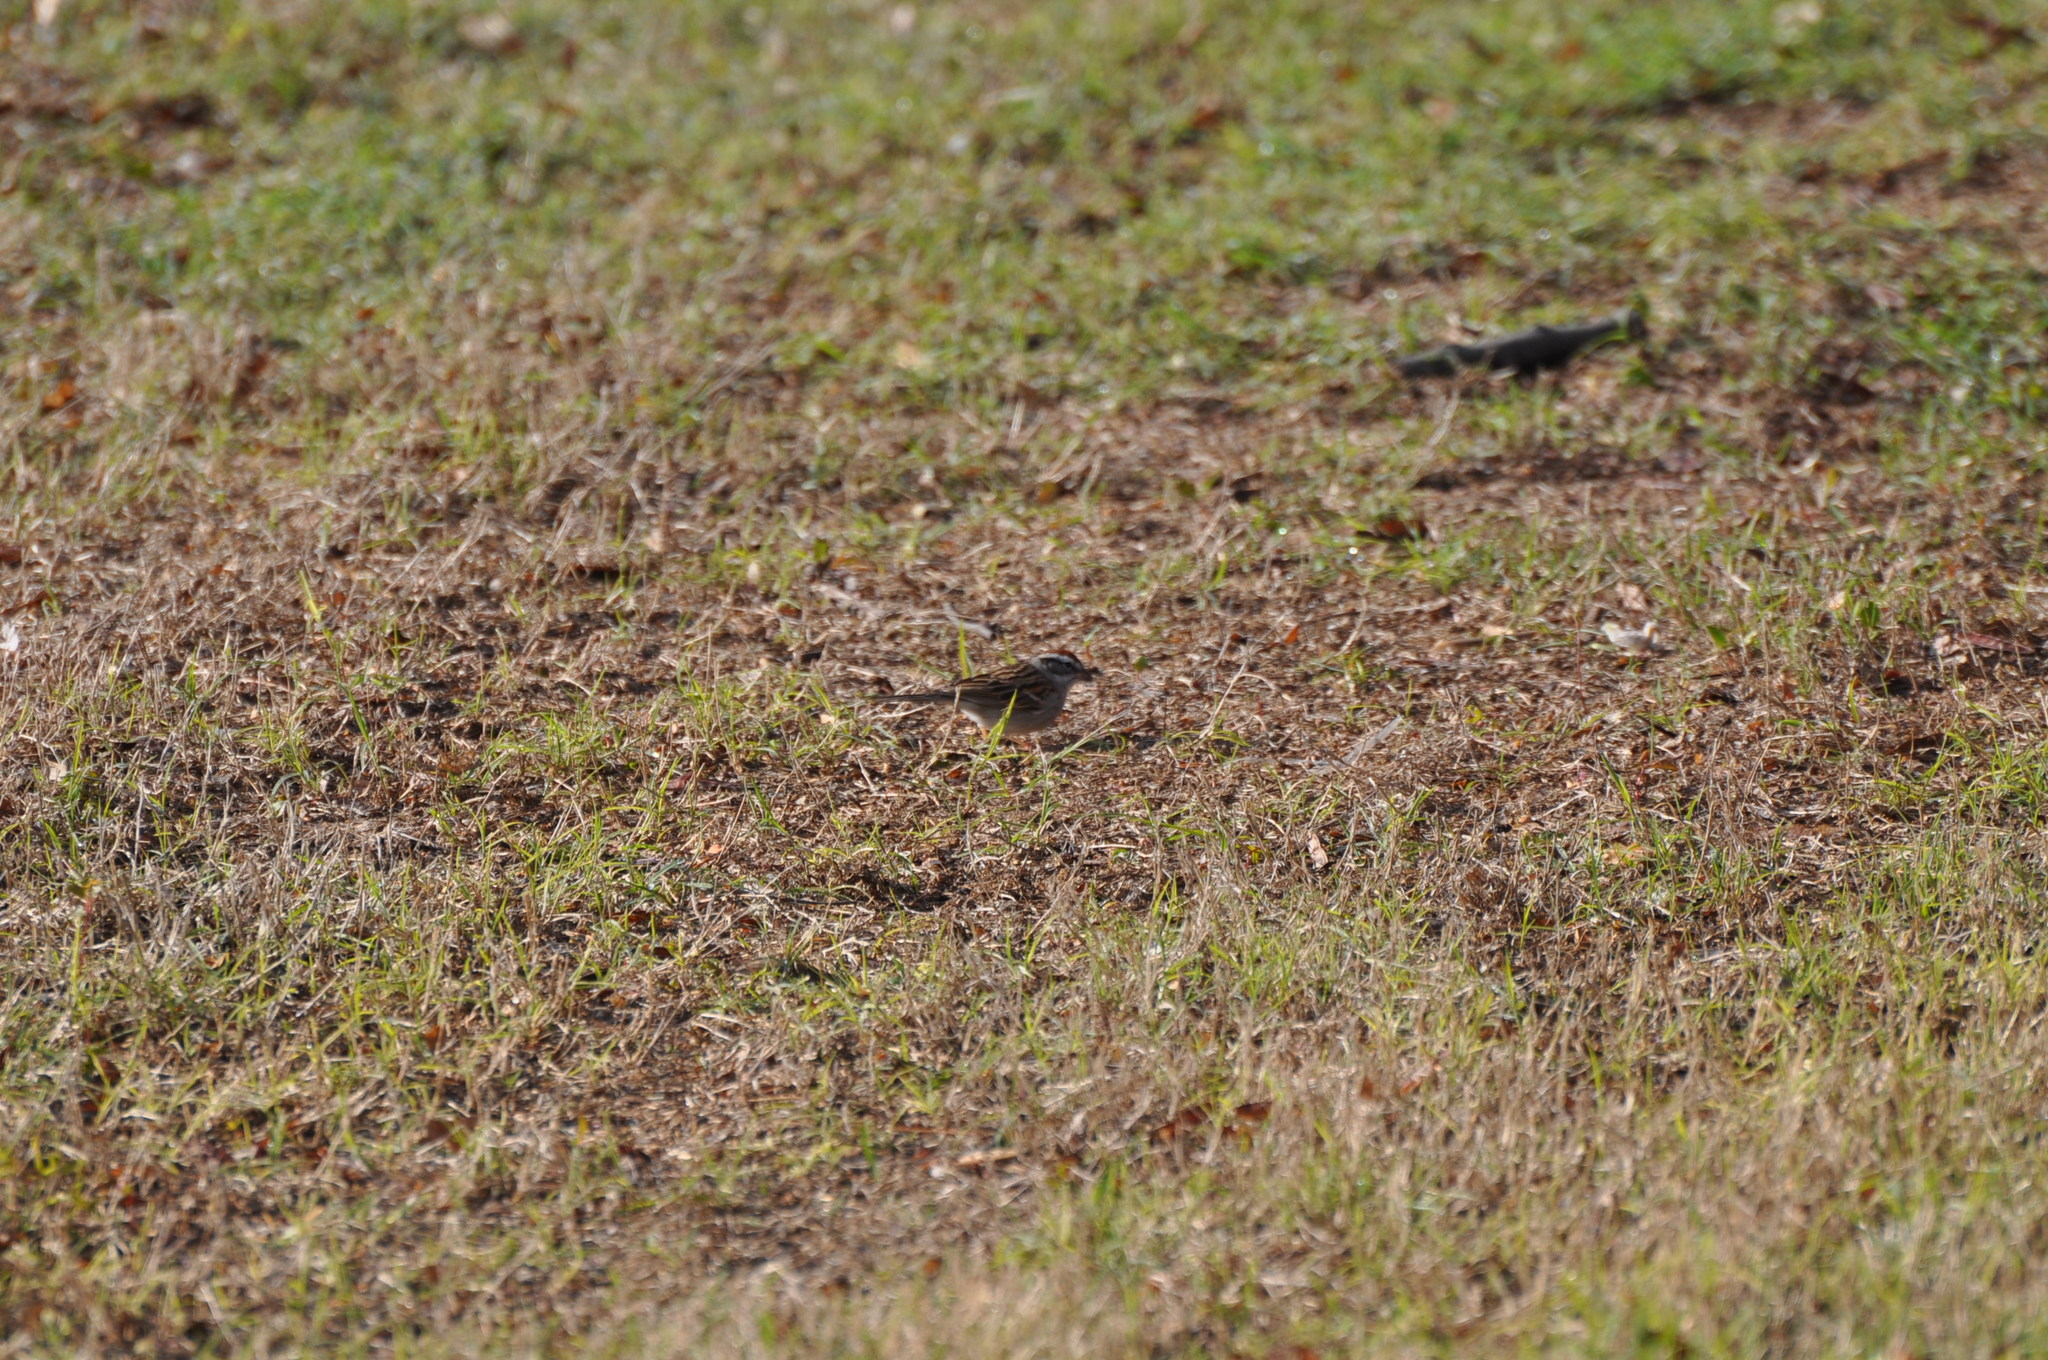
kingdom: Animalia
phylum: Chordata
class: Aves
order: Passeriformes
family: Passerellidae
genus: Spizella
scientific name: Spizella passerina
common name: Chipping sparrow
